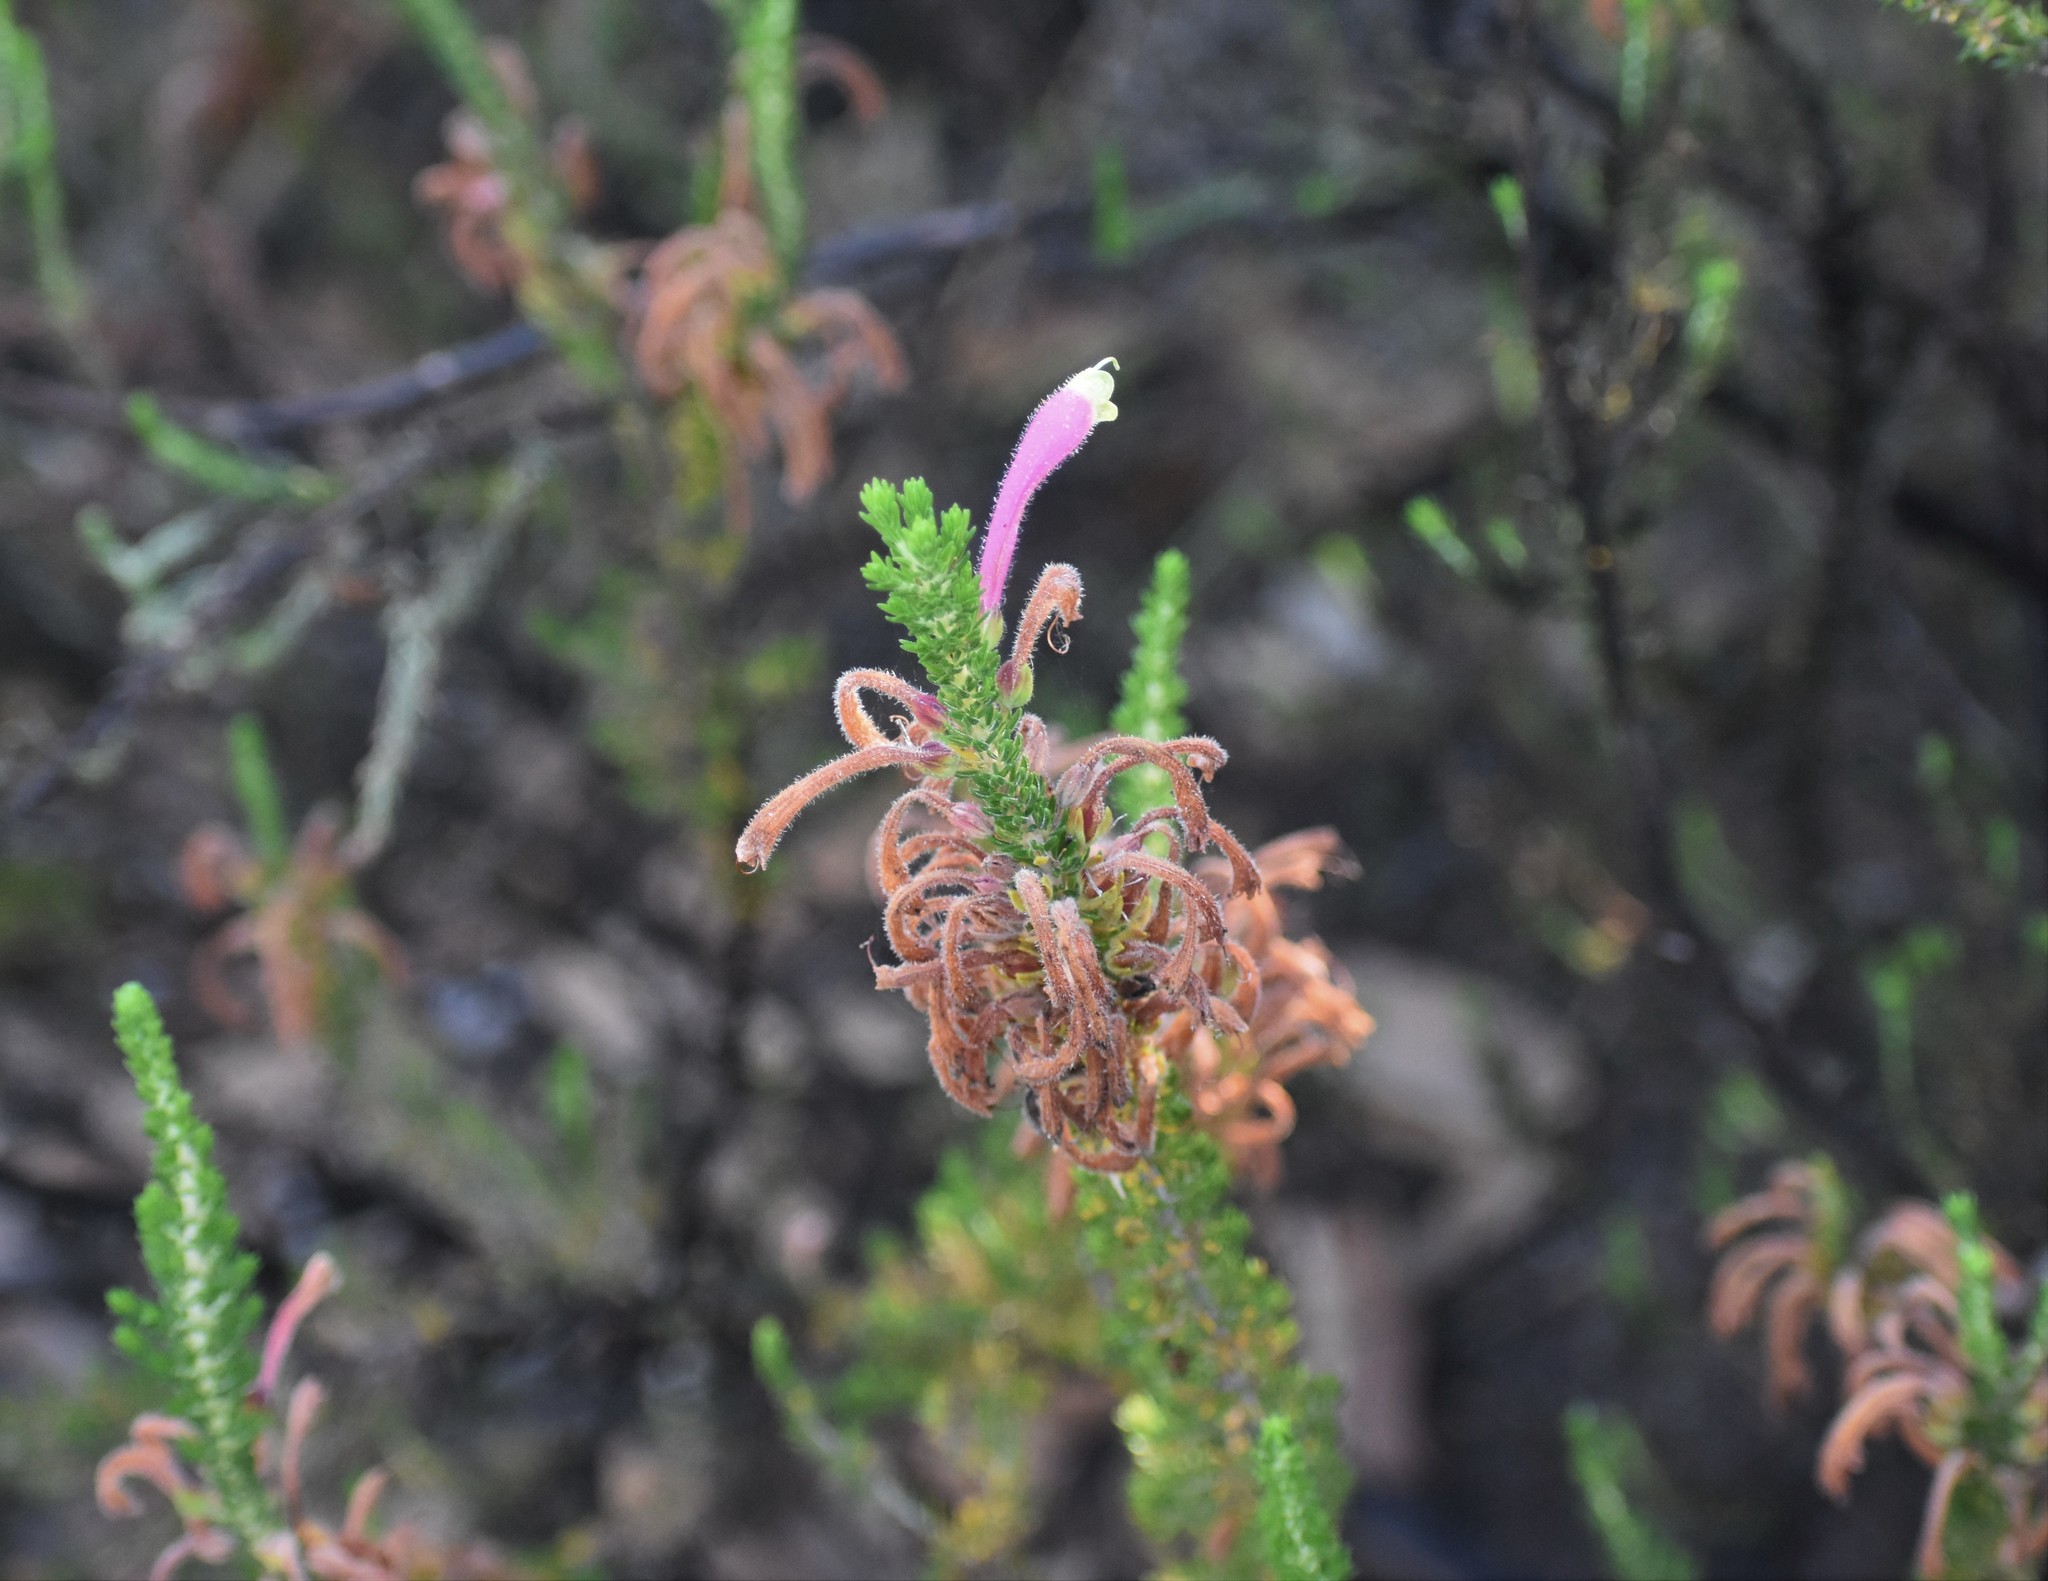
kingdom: Plantae
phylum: Tracheophyta
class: Magnoliopsida
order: Ericales
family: Ericaceae
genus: Erica
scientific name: Erica densifolia
